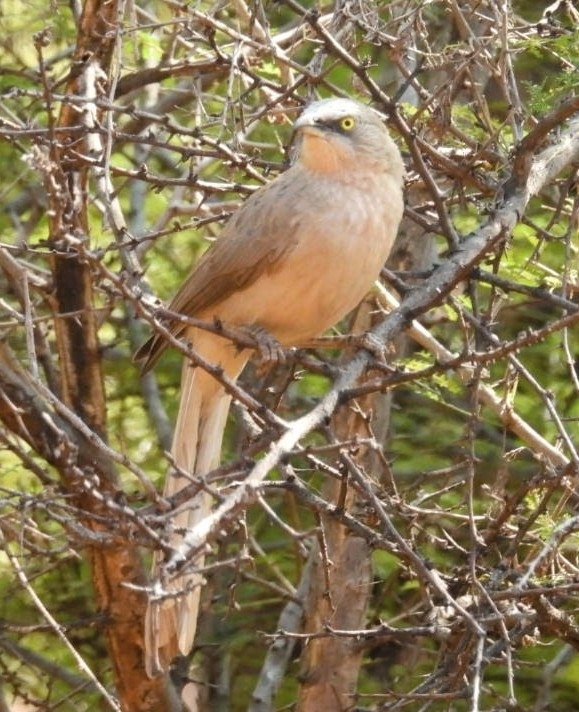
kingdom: Animalia
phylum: Chordata
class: Aves
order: Passeriformes
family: Leiothrichidae
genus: Turdoides
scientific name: Turdoides malcolmi
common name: Large grey babbler
